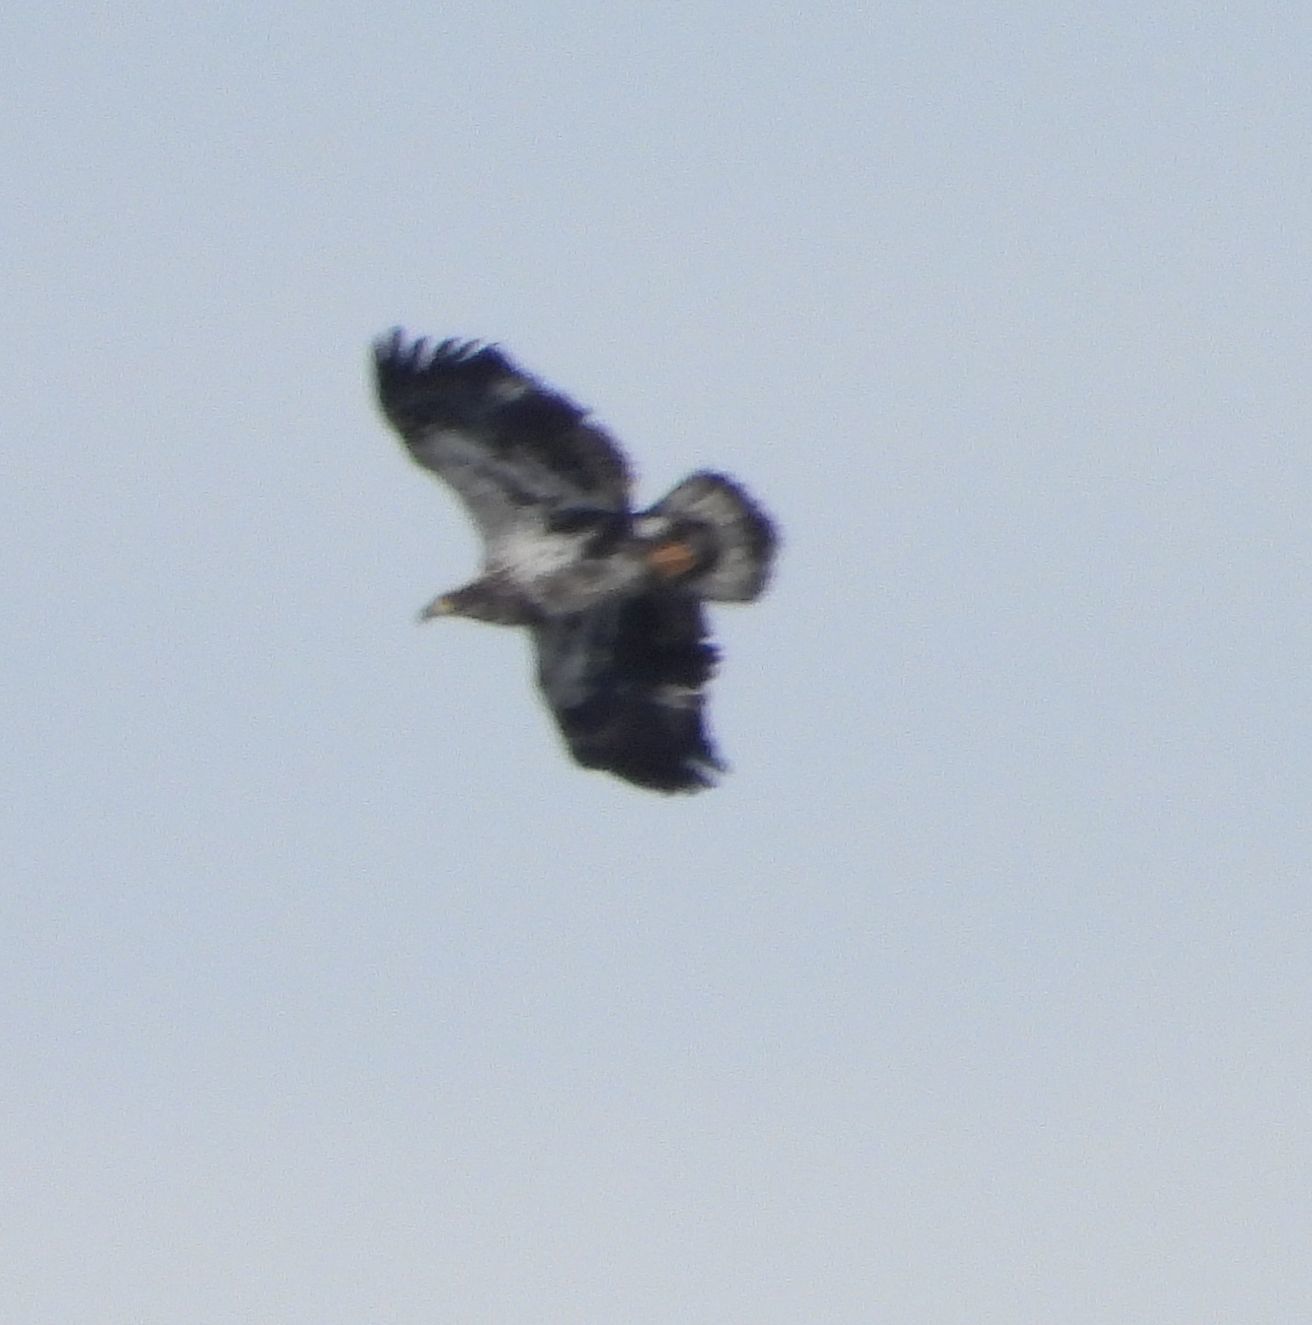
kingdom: Animalia
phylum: Chordata
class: Aves
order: Accipitriformes
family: Accipitridae
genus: Haliaeetus
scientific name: Haliaeetus leucocephalus
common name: Bald eagle
